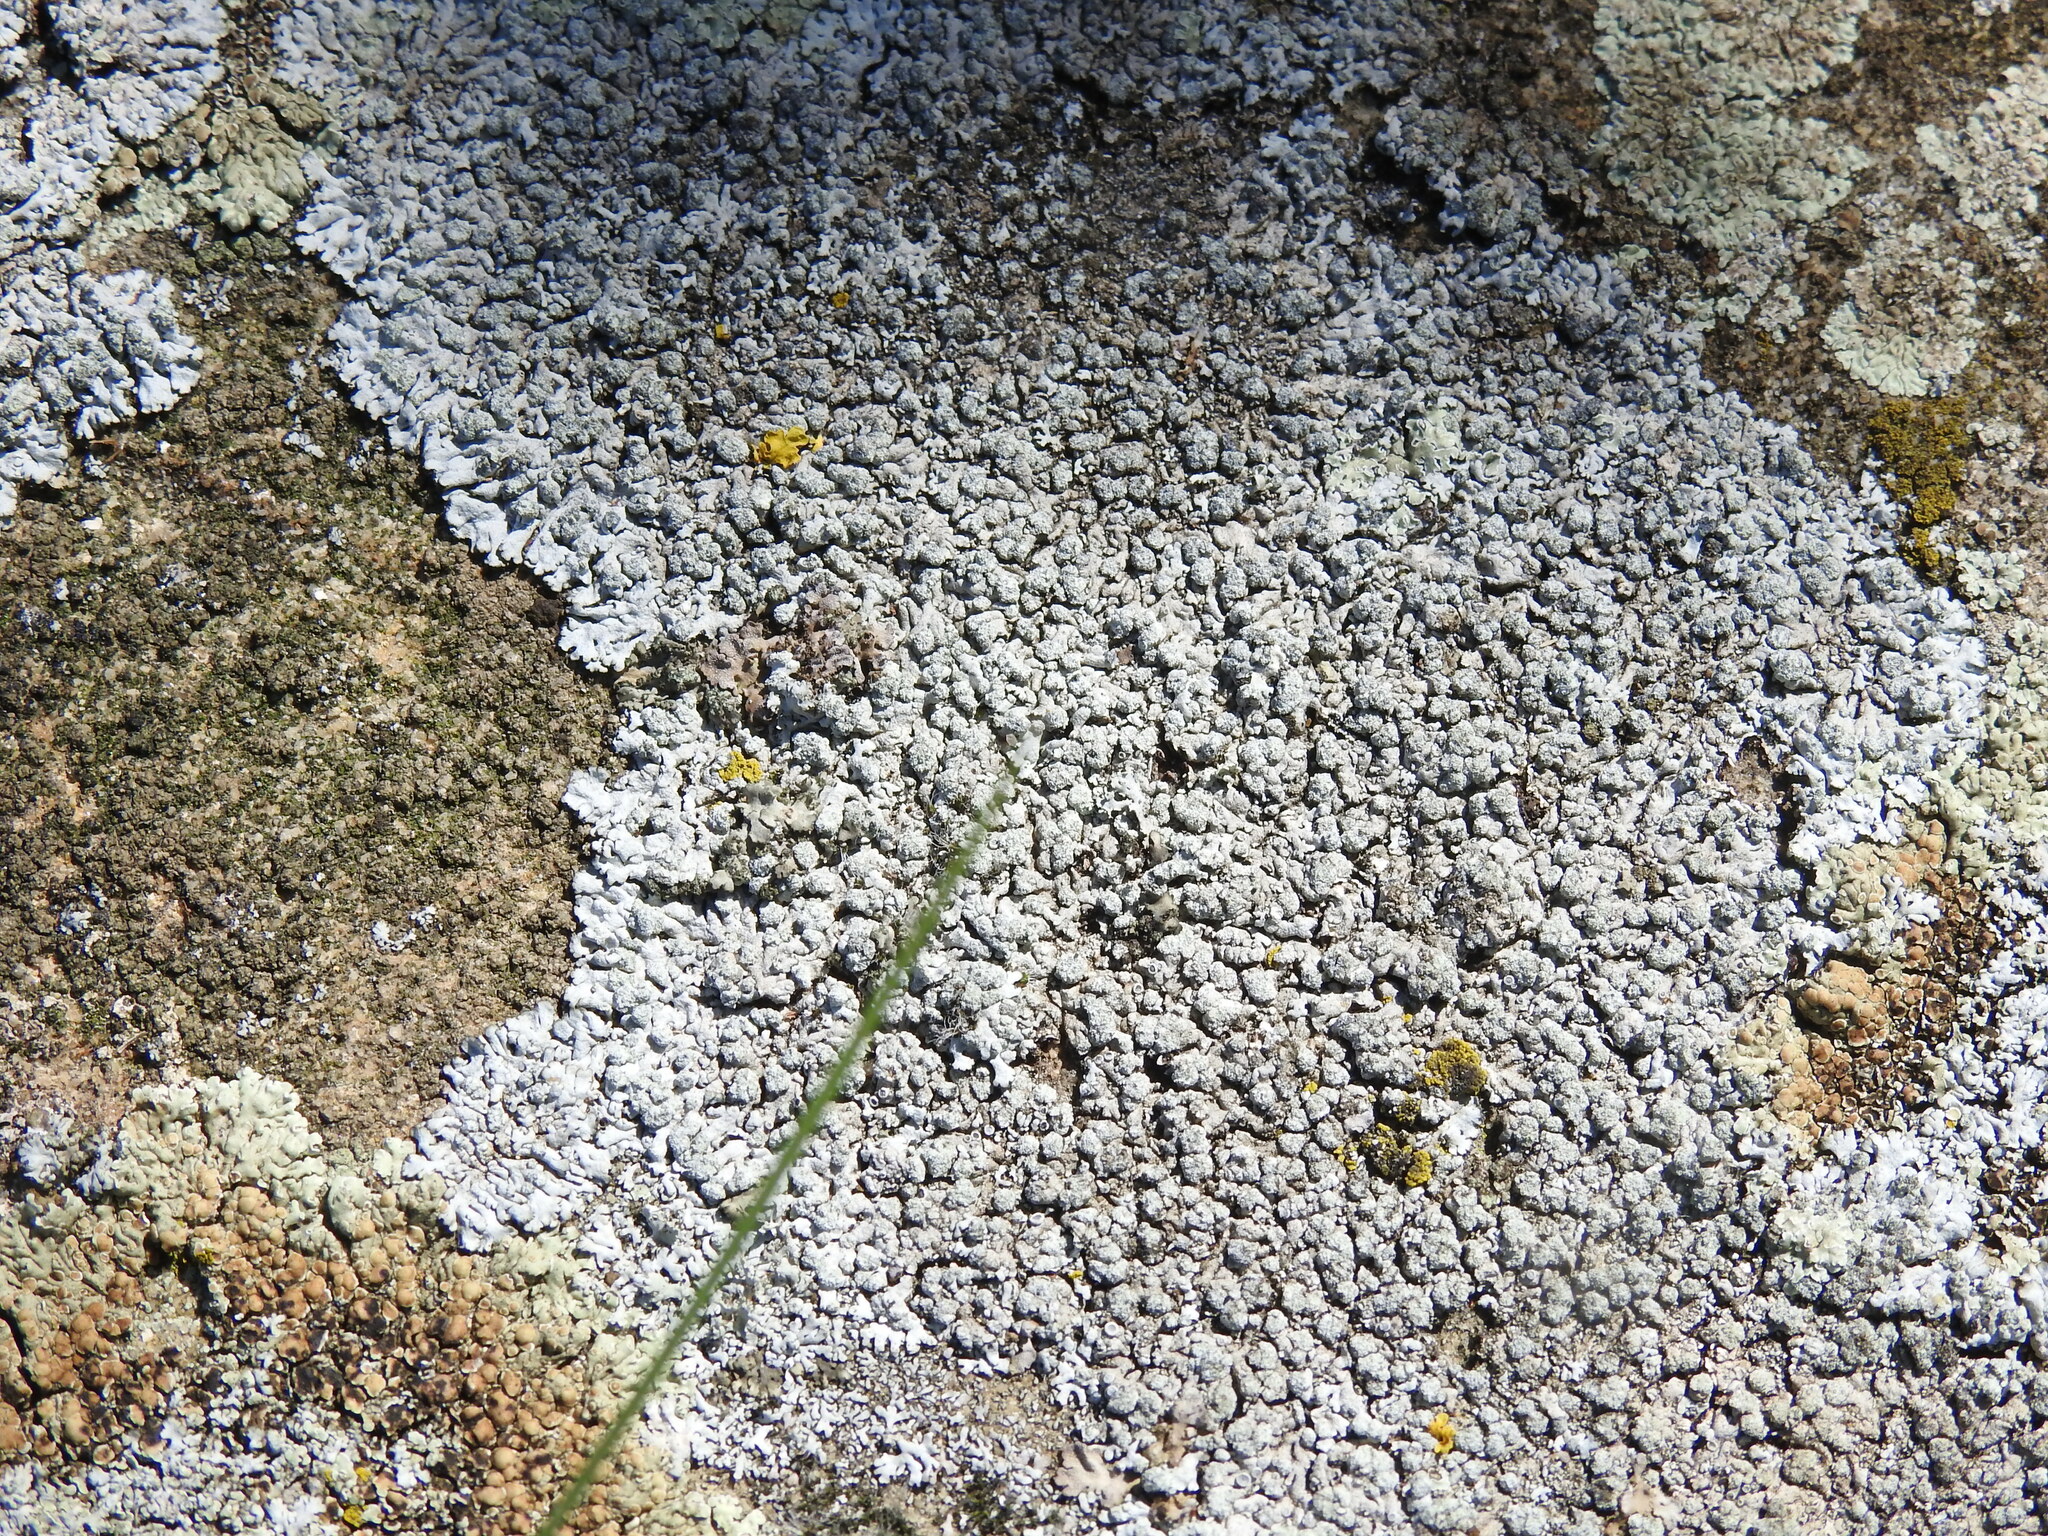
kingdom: Fungi
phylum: Ascomycota
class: Lecanoromycetes
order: Caliciales
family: Physciaceae
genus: Physcia
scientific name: Physcia caesia
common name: Blue-gray rosette lichen
